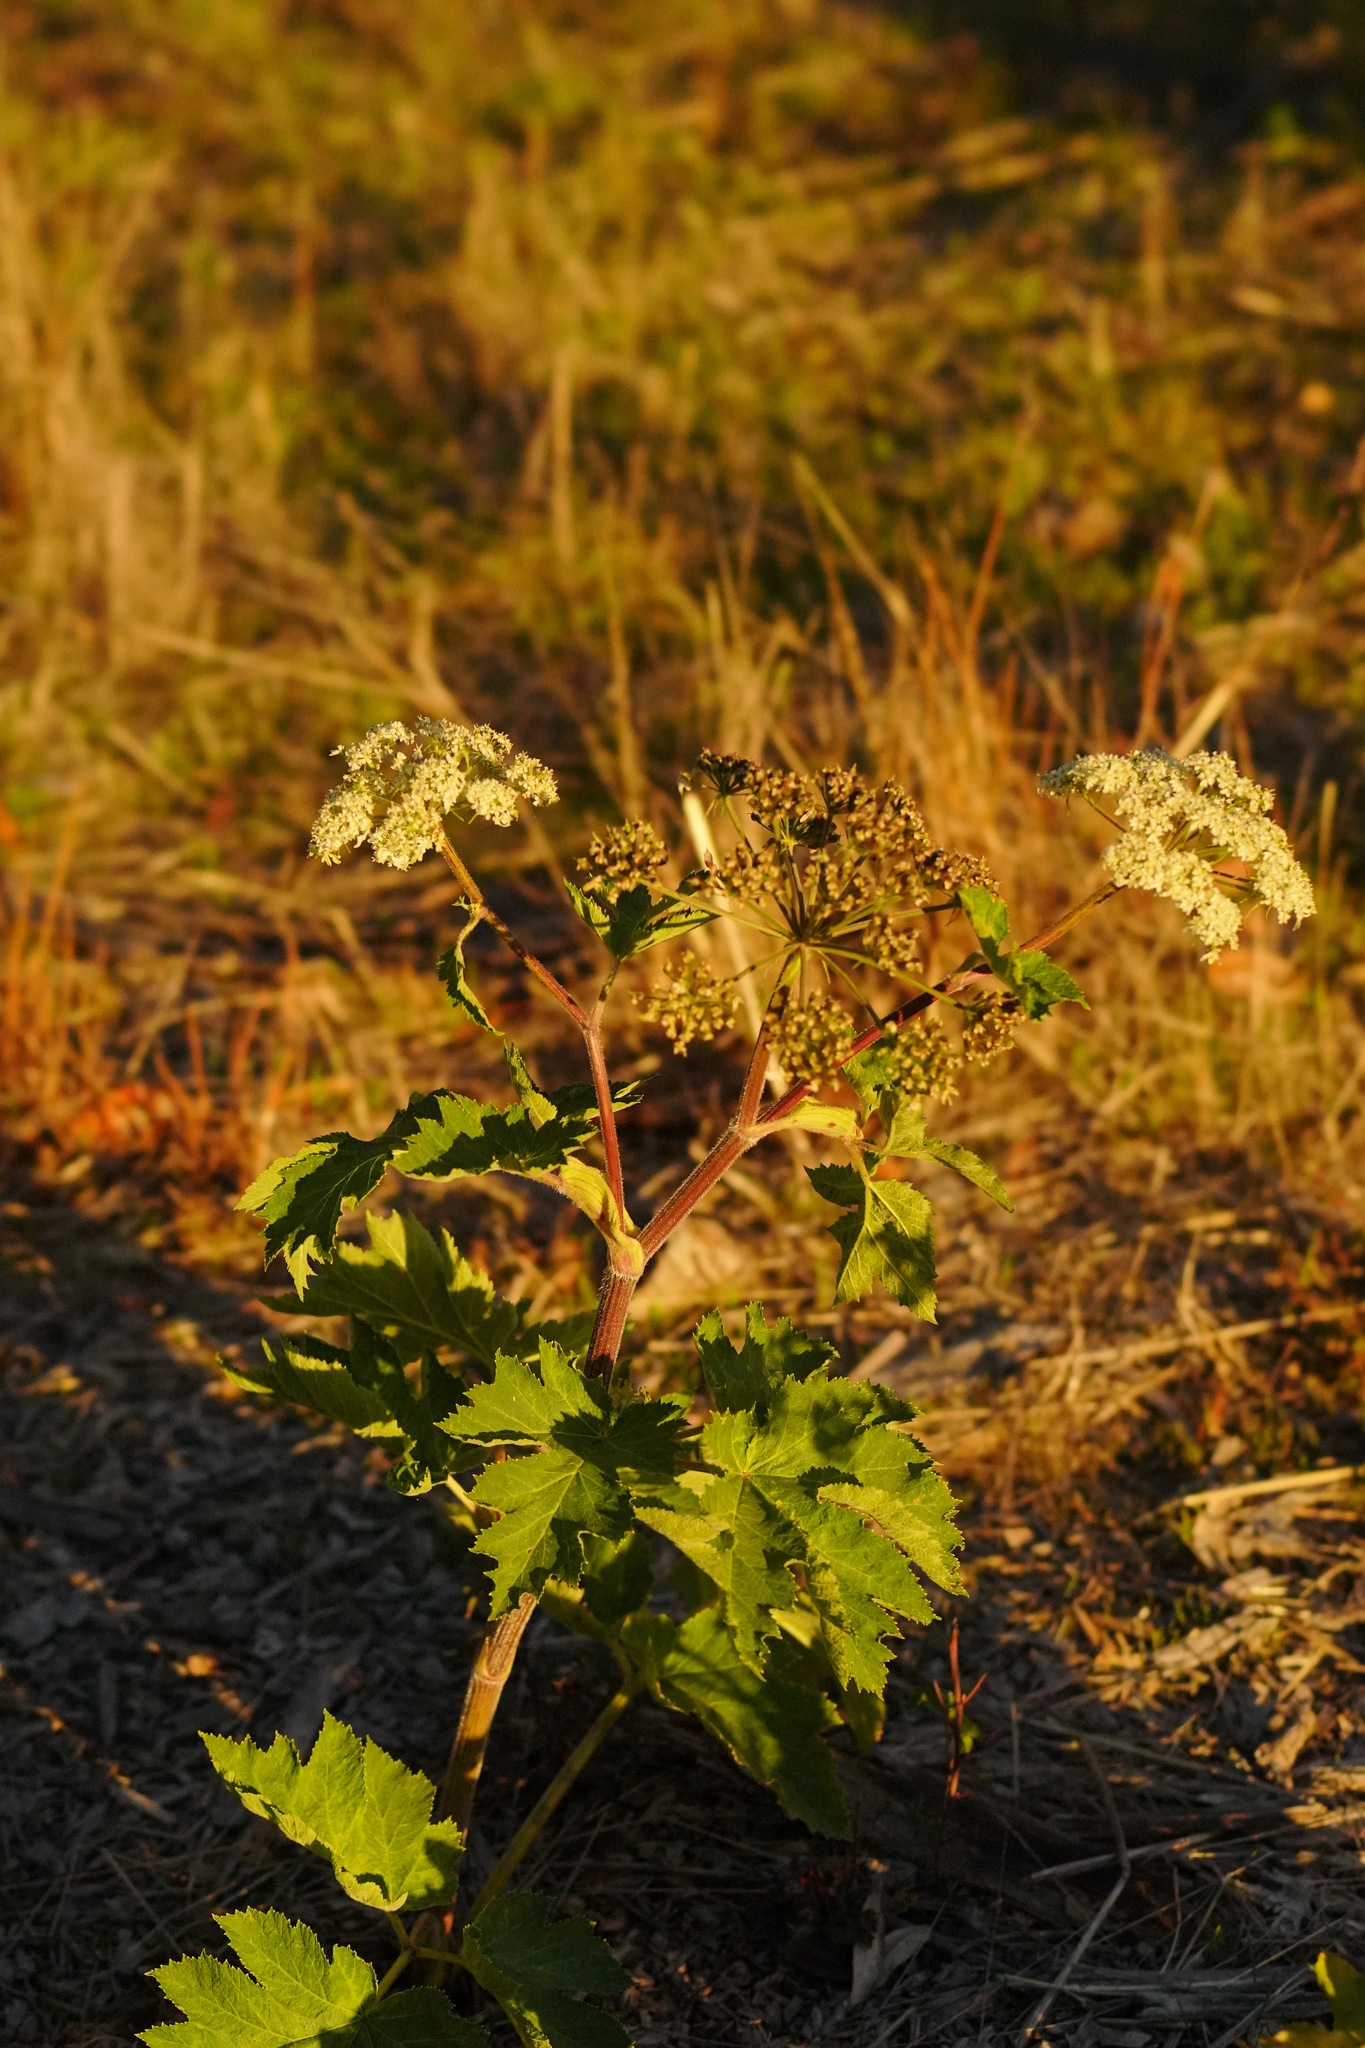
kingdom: Plantae
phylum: Tracheophyta
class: Magnoliopsida
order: Apiales
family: Apiaceae
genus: Heracleum
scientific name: Heracleum maximum
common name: American cow parsnip
